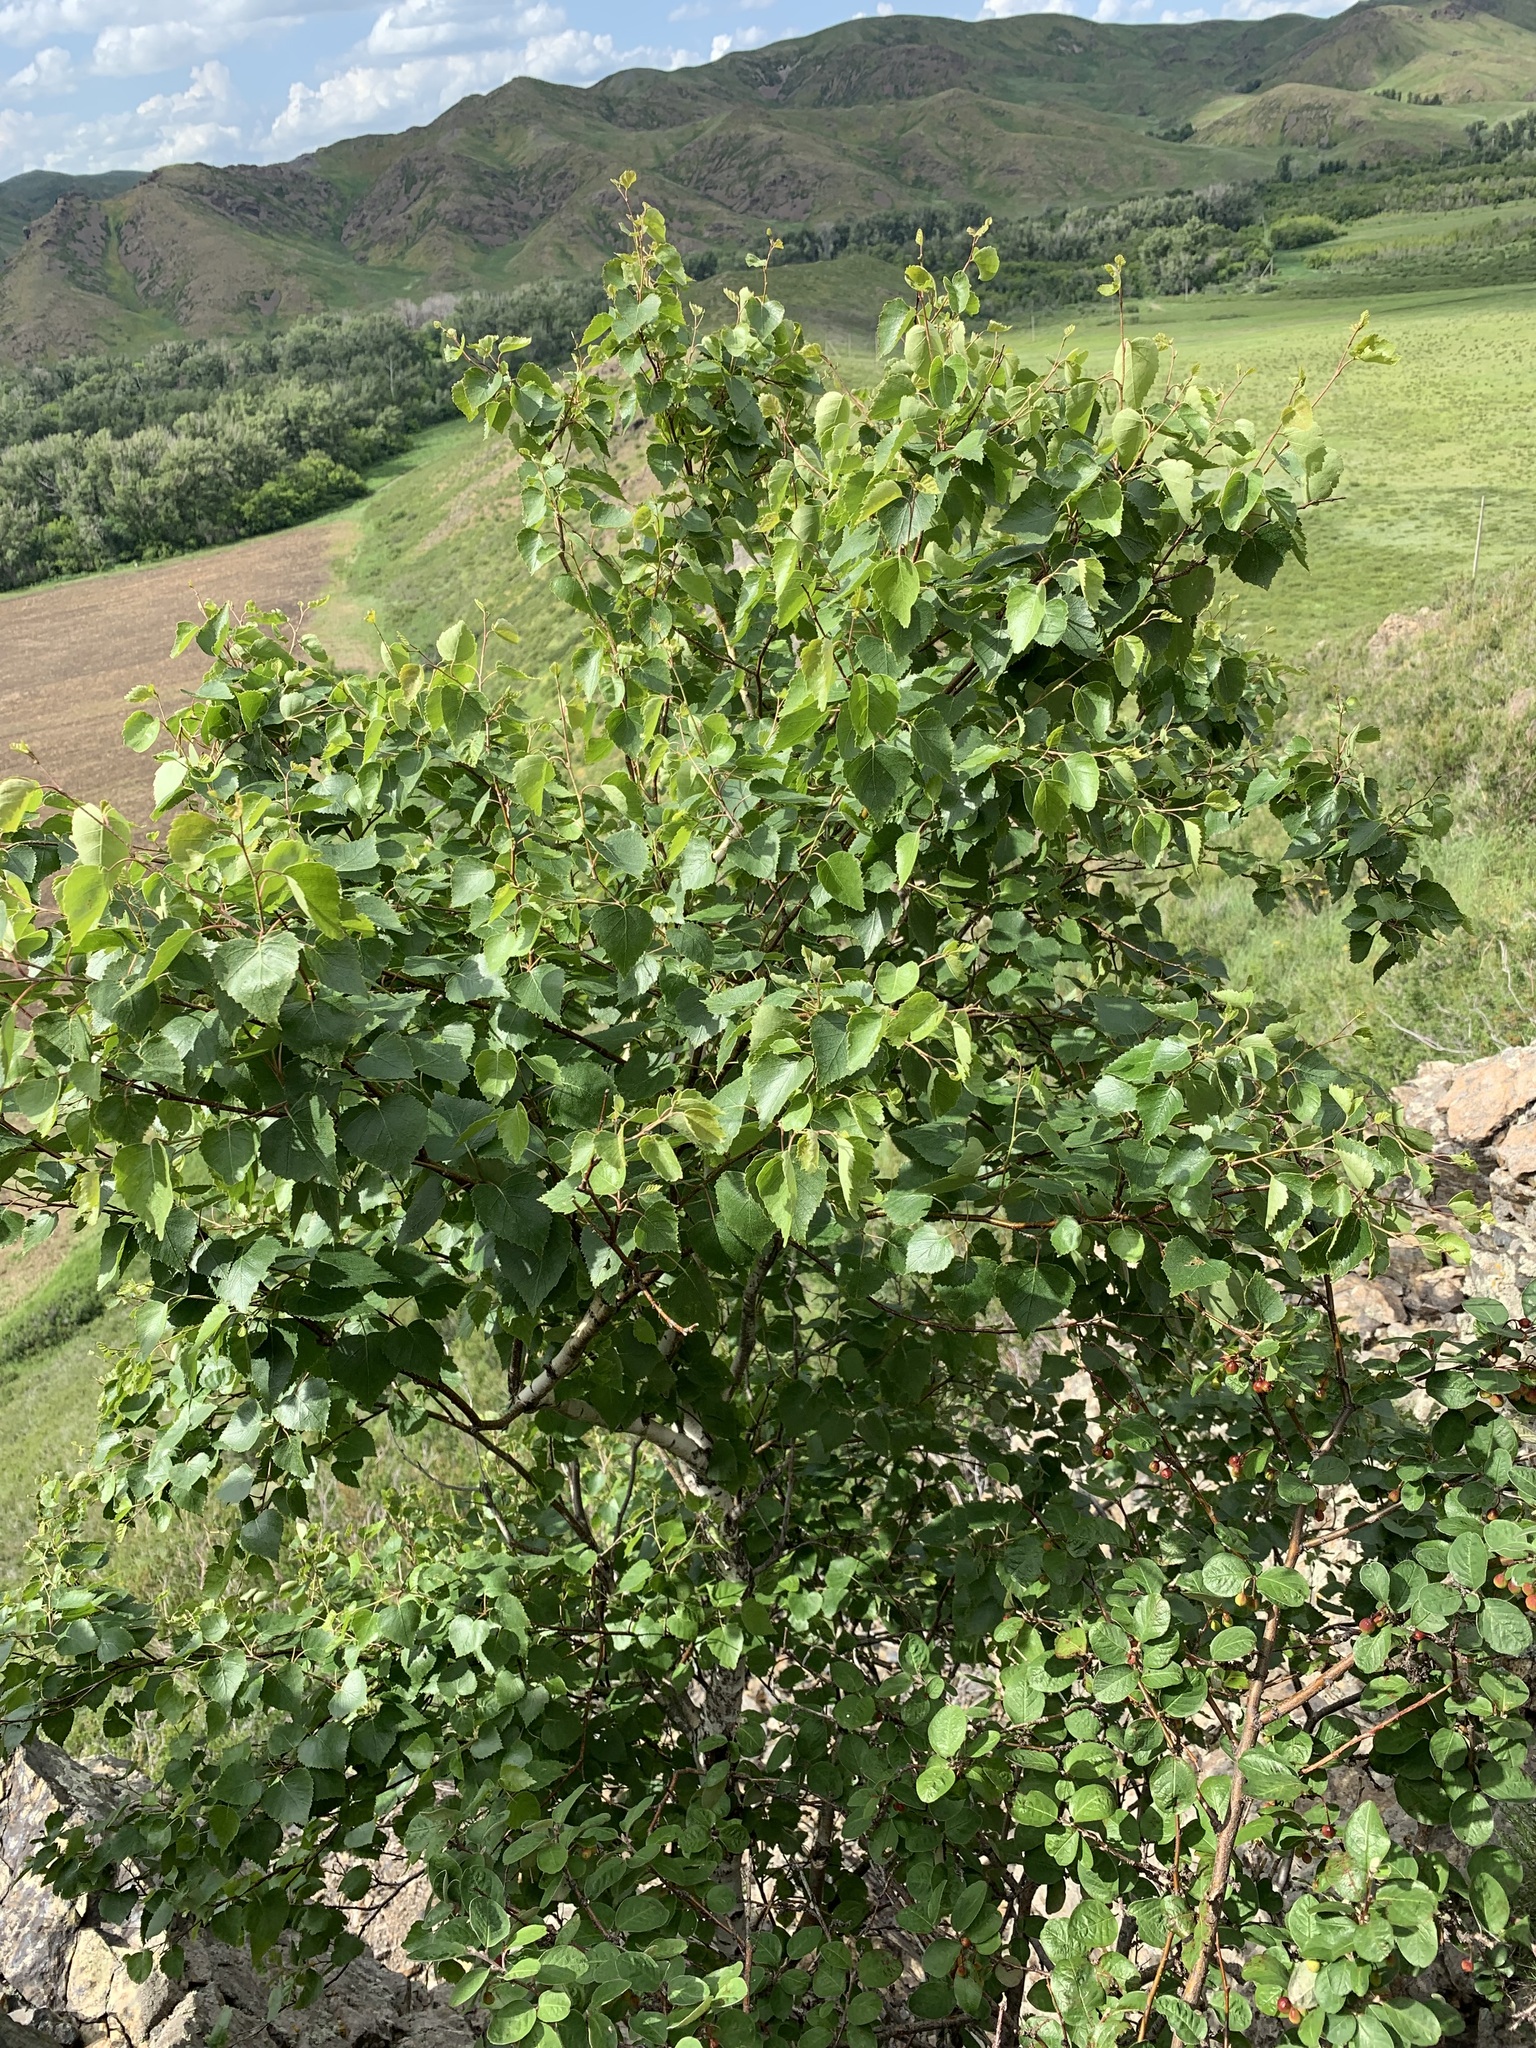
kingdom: Plantae
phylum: Tracheophyta
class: Magnoliopsida
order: Fagales
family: Betulaceae
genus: Betula
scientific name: Betula pendula
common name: Silver birch
